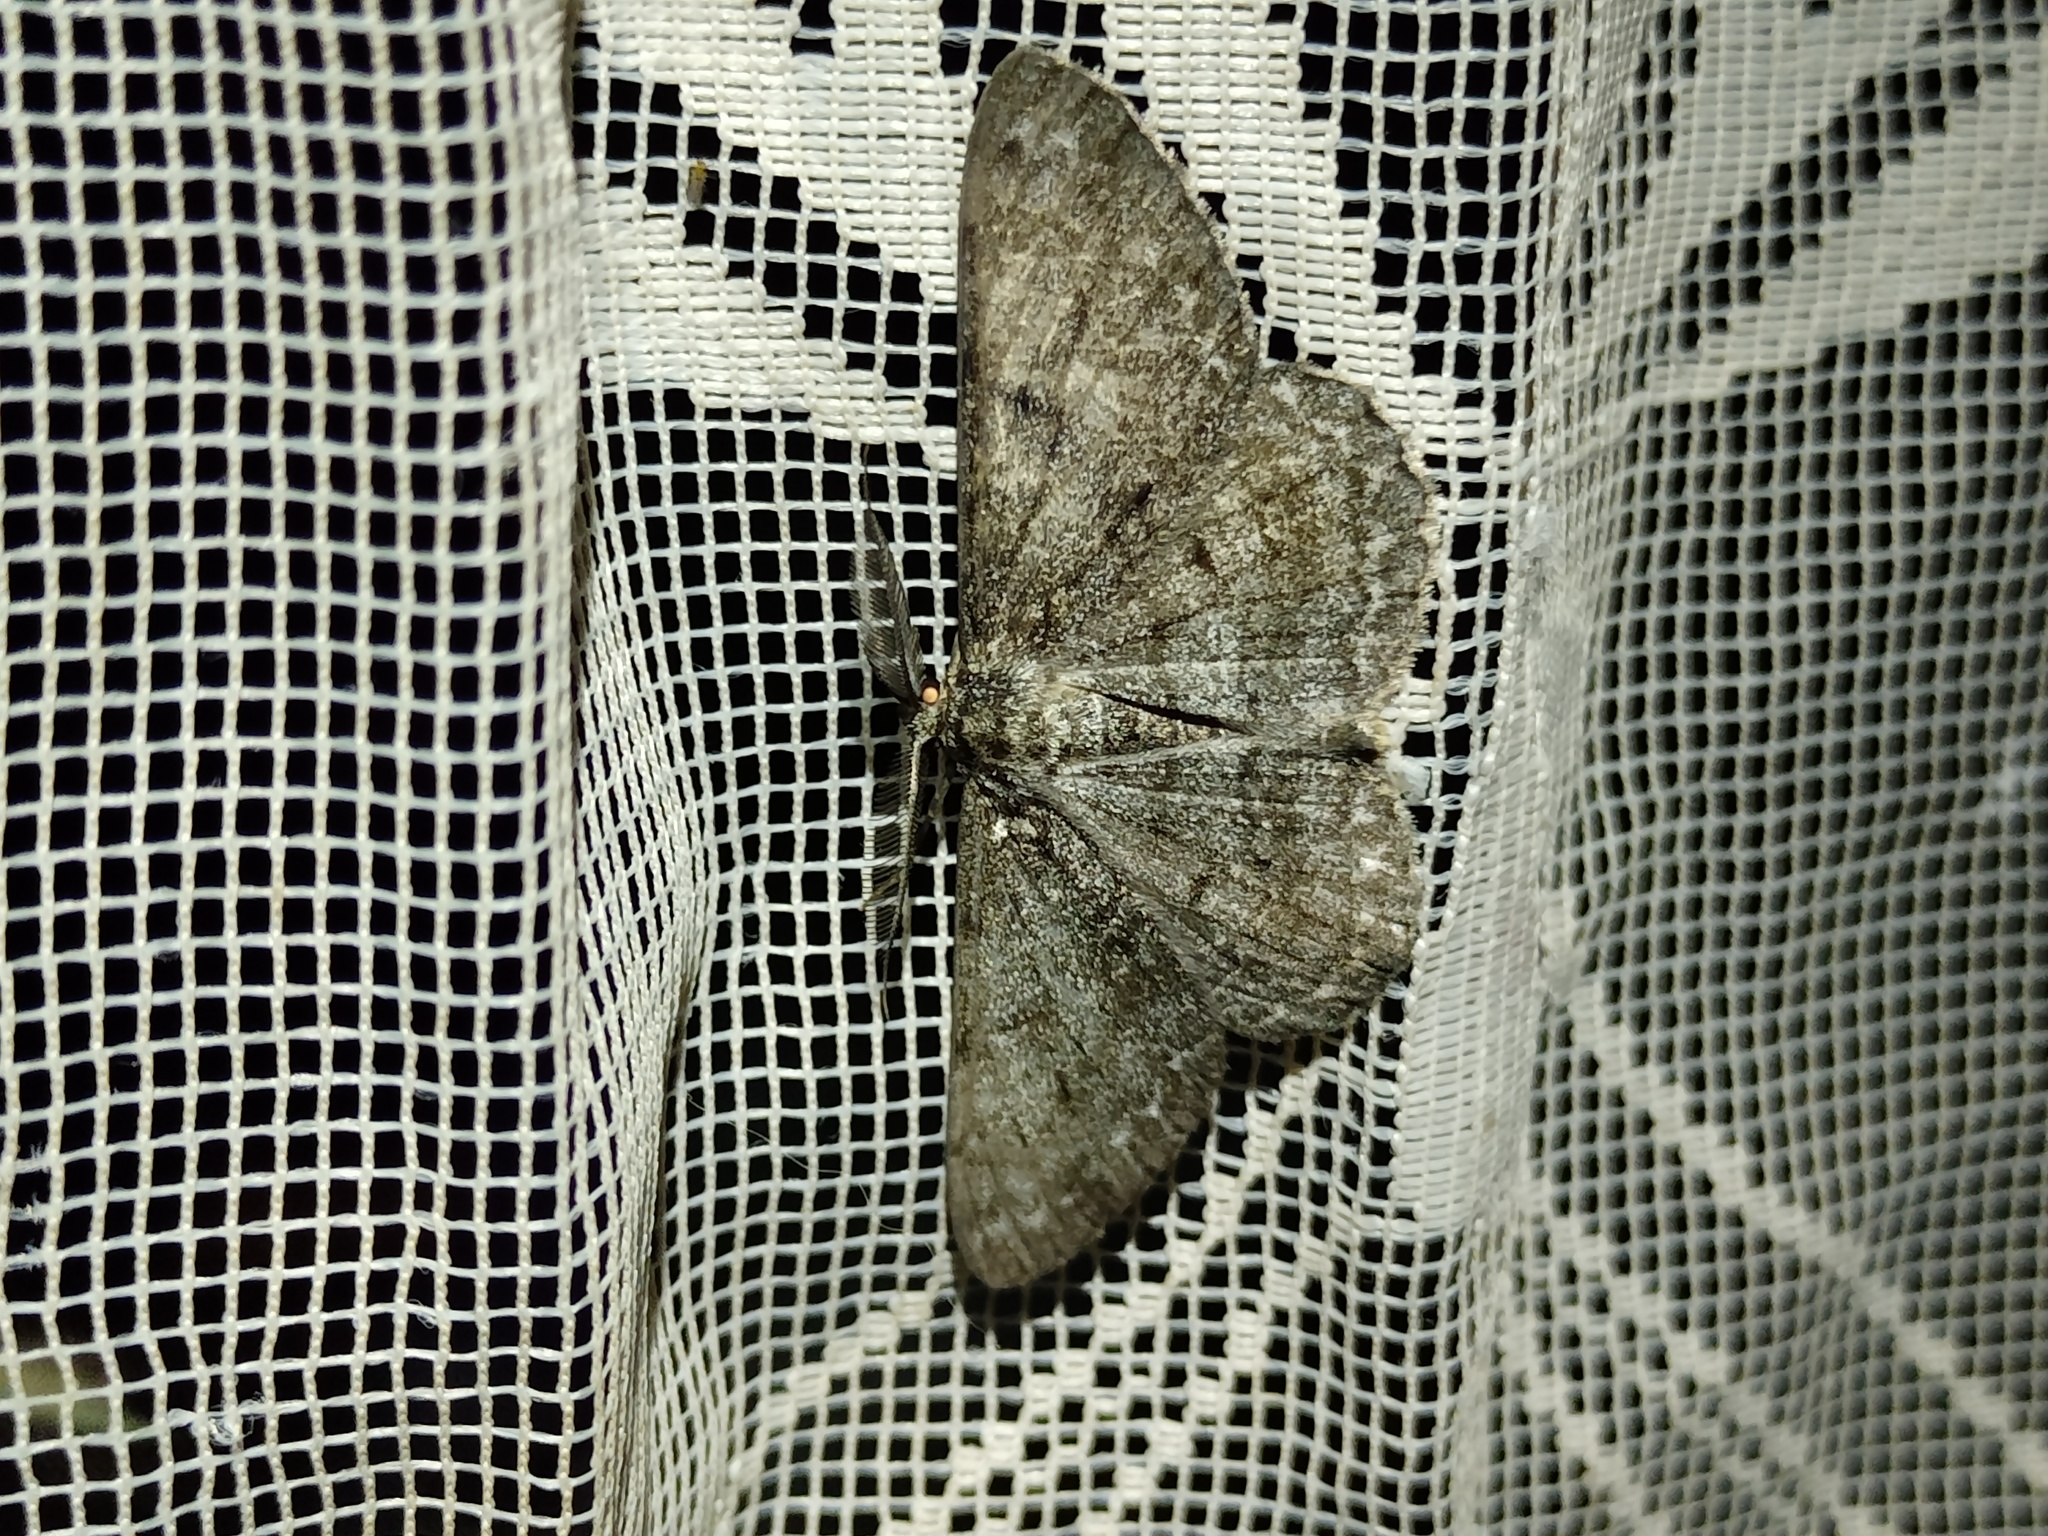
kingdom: Animalia
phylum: Arthropoda
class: Insecta
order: Lepidoptera
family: Geometridae
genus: Hypomecis
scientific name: Hypomecis roboraria
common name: Great oak beauty
